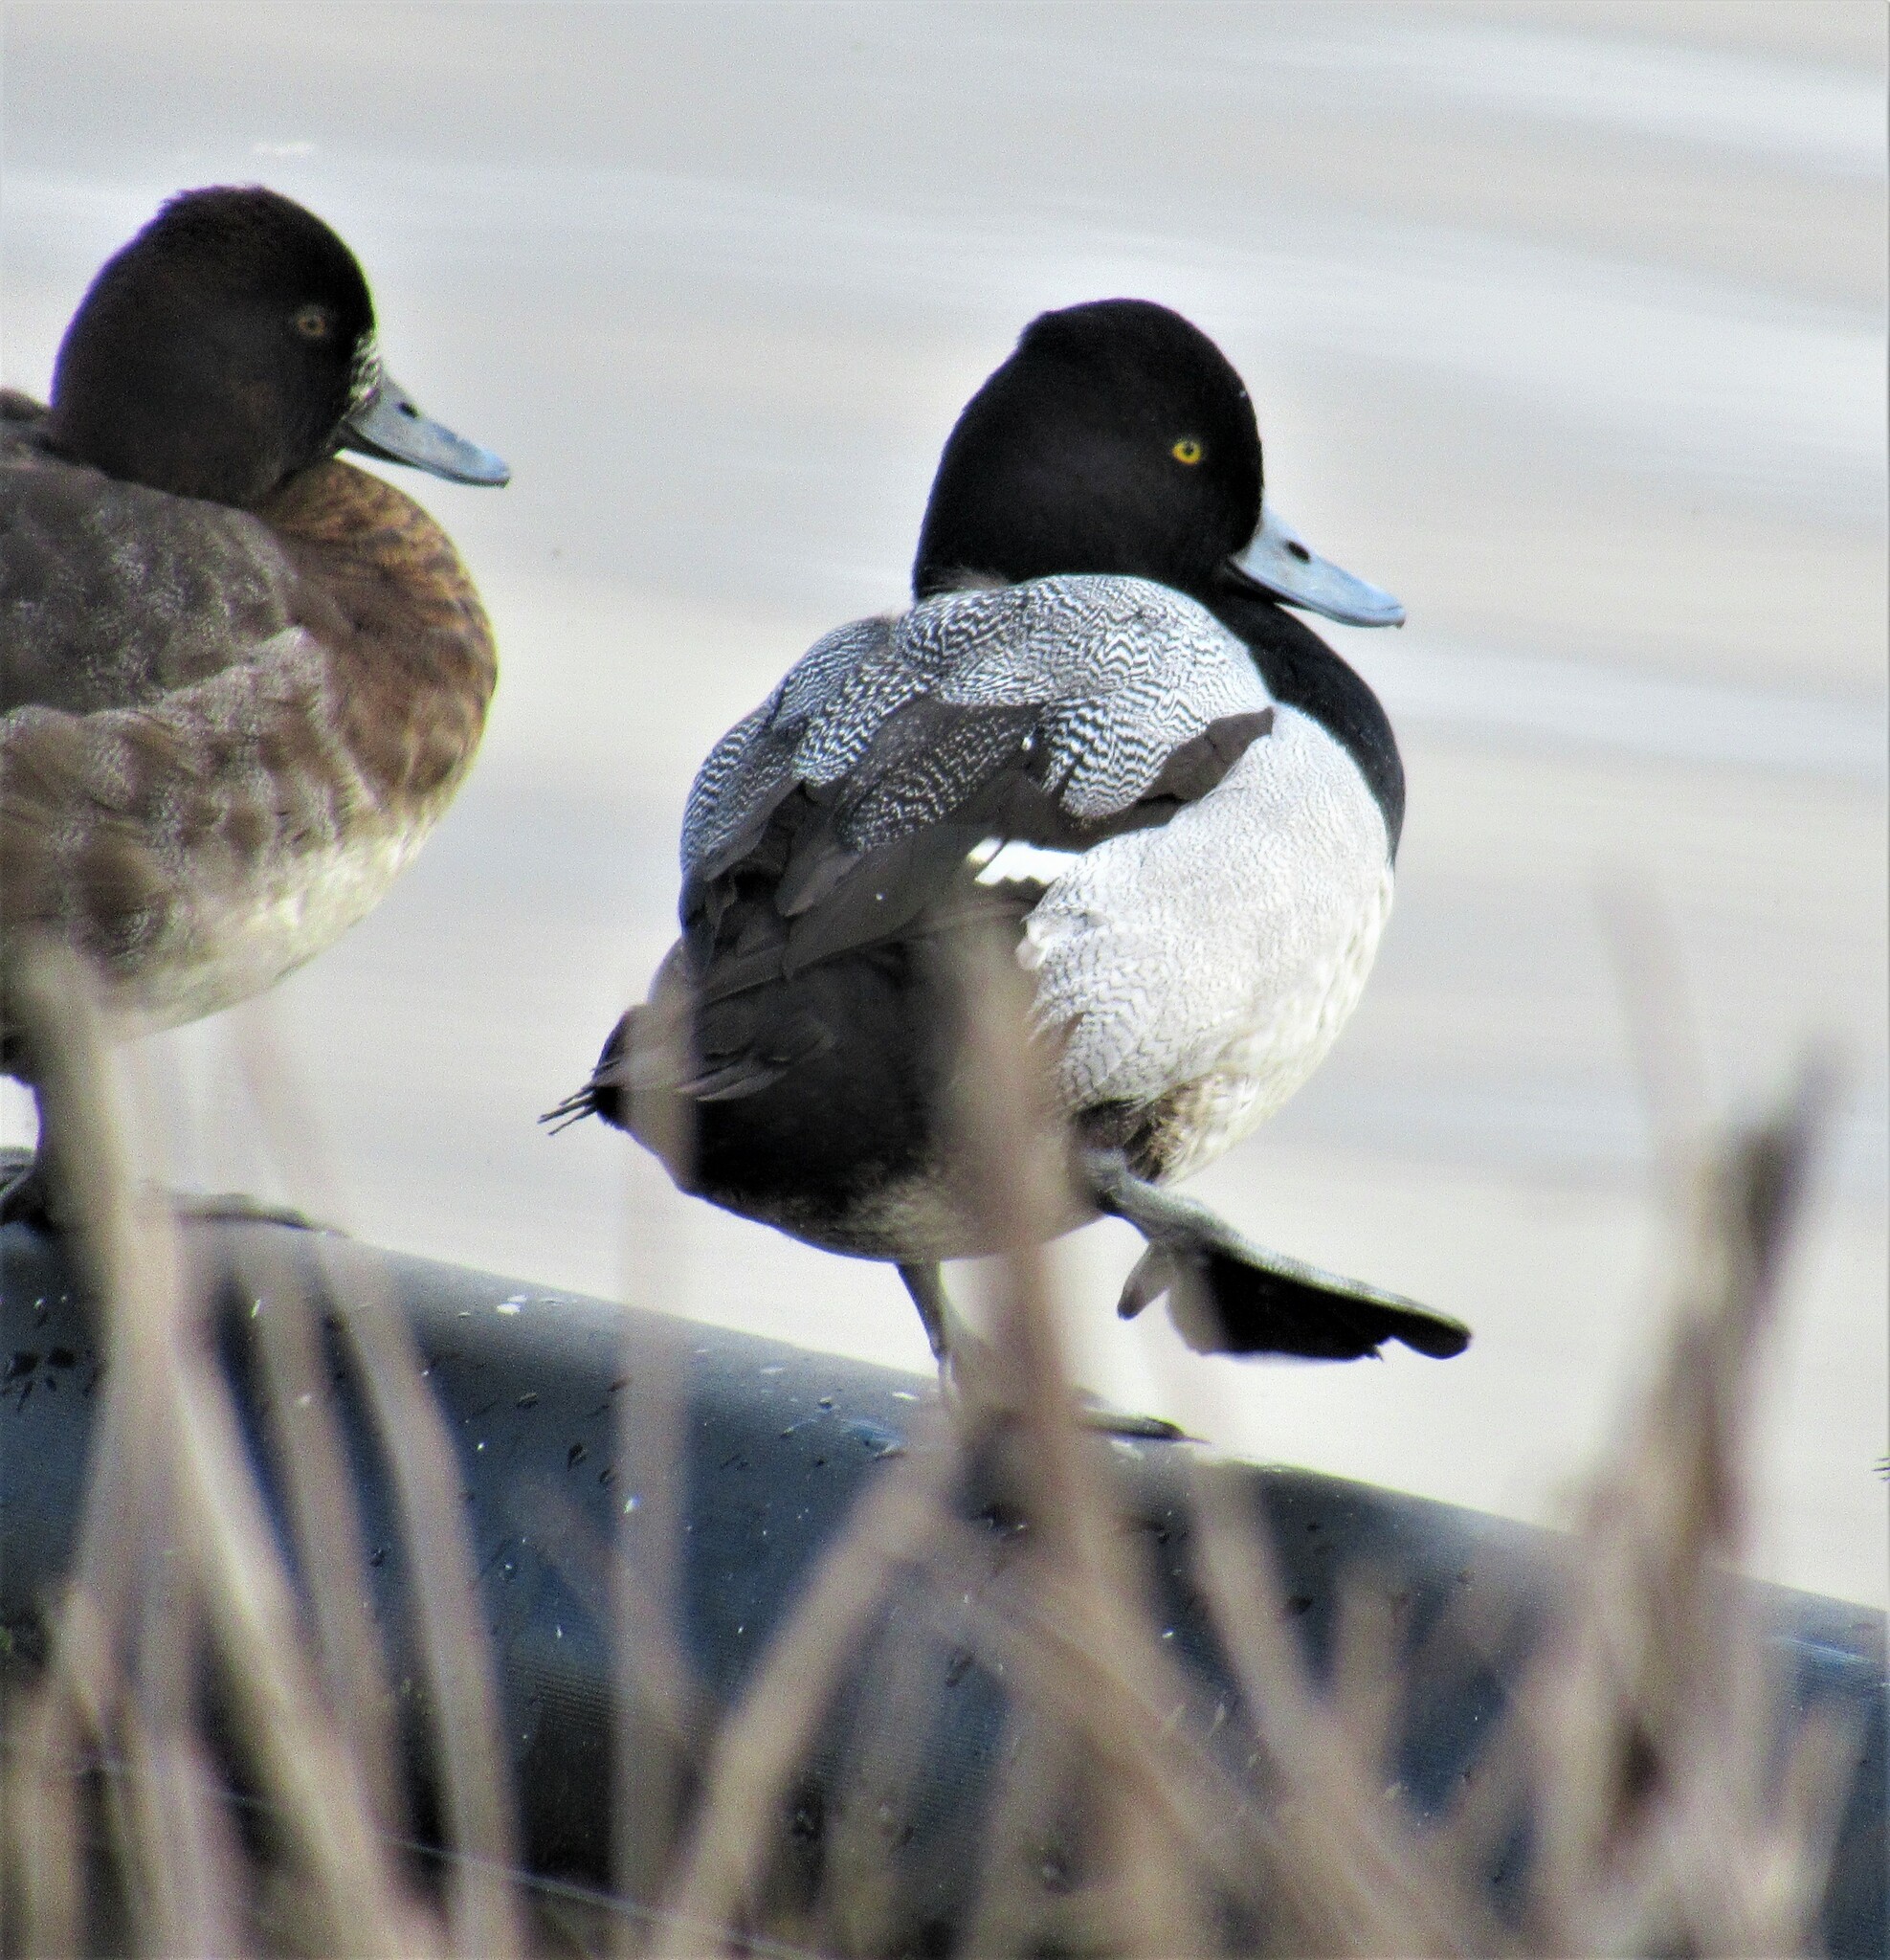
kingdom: Animalia
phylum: Chordata
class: Aves
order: Anseriformes
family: Anatidae
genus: Aythya
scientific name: Aythya affinis
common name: Lesser scaup
